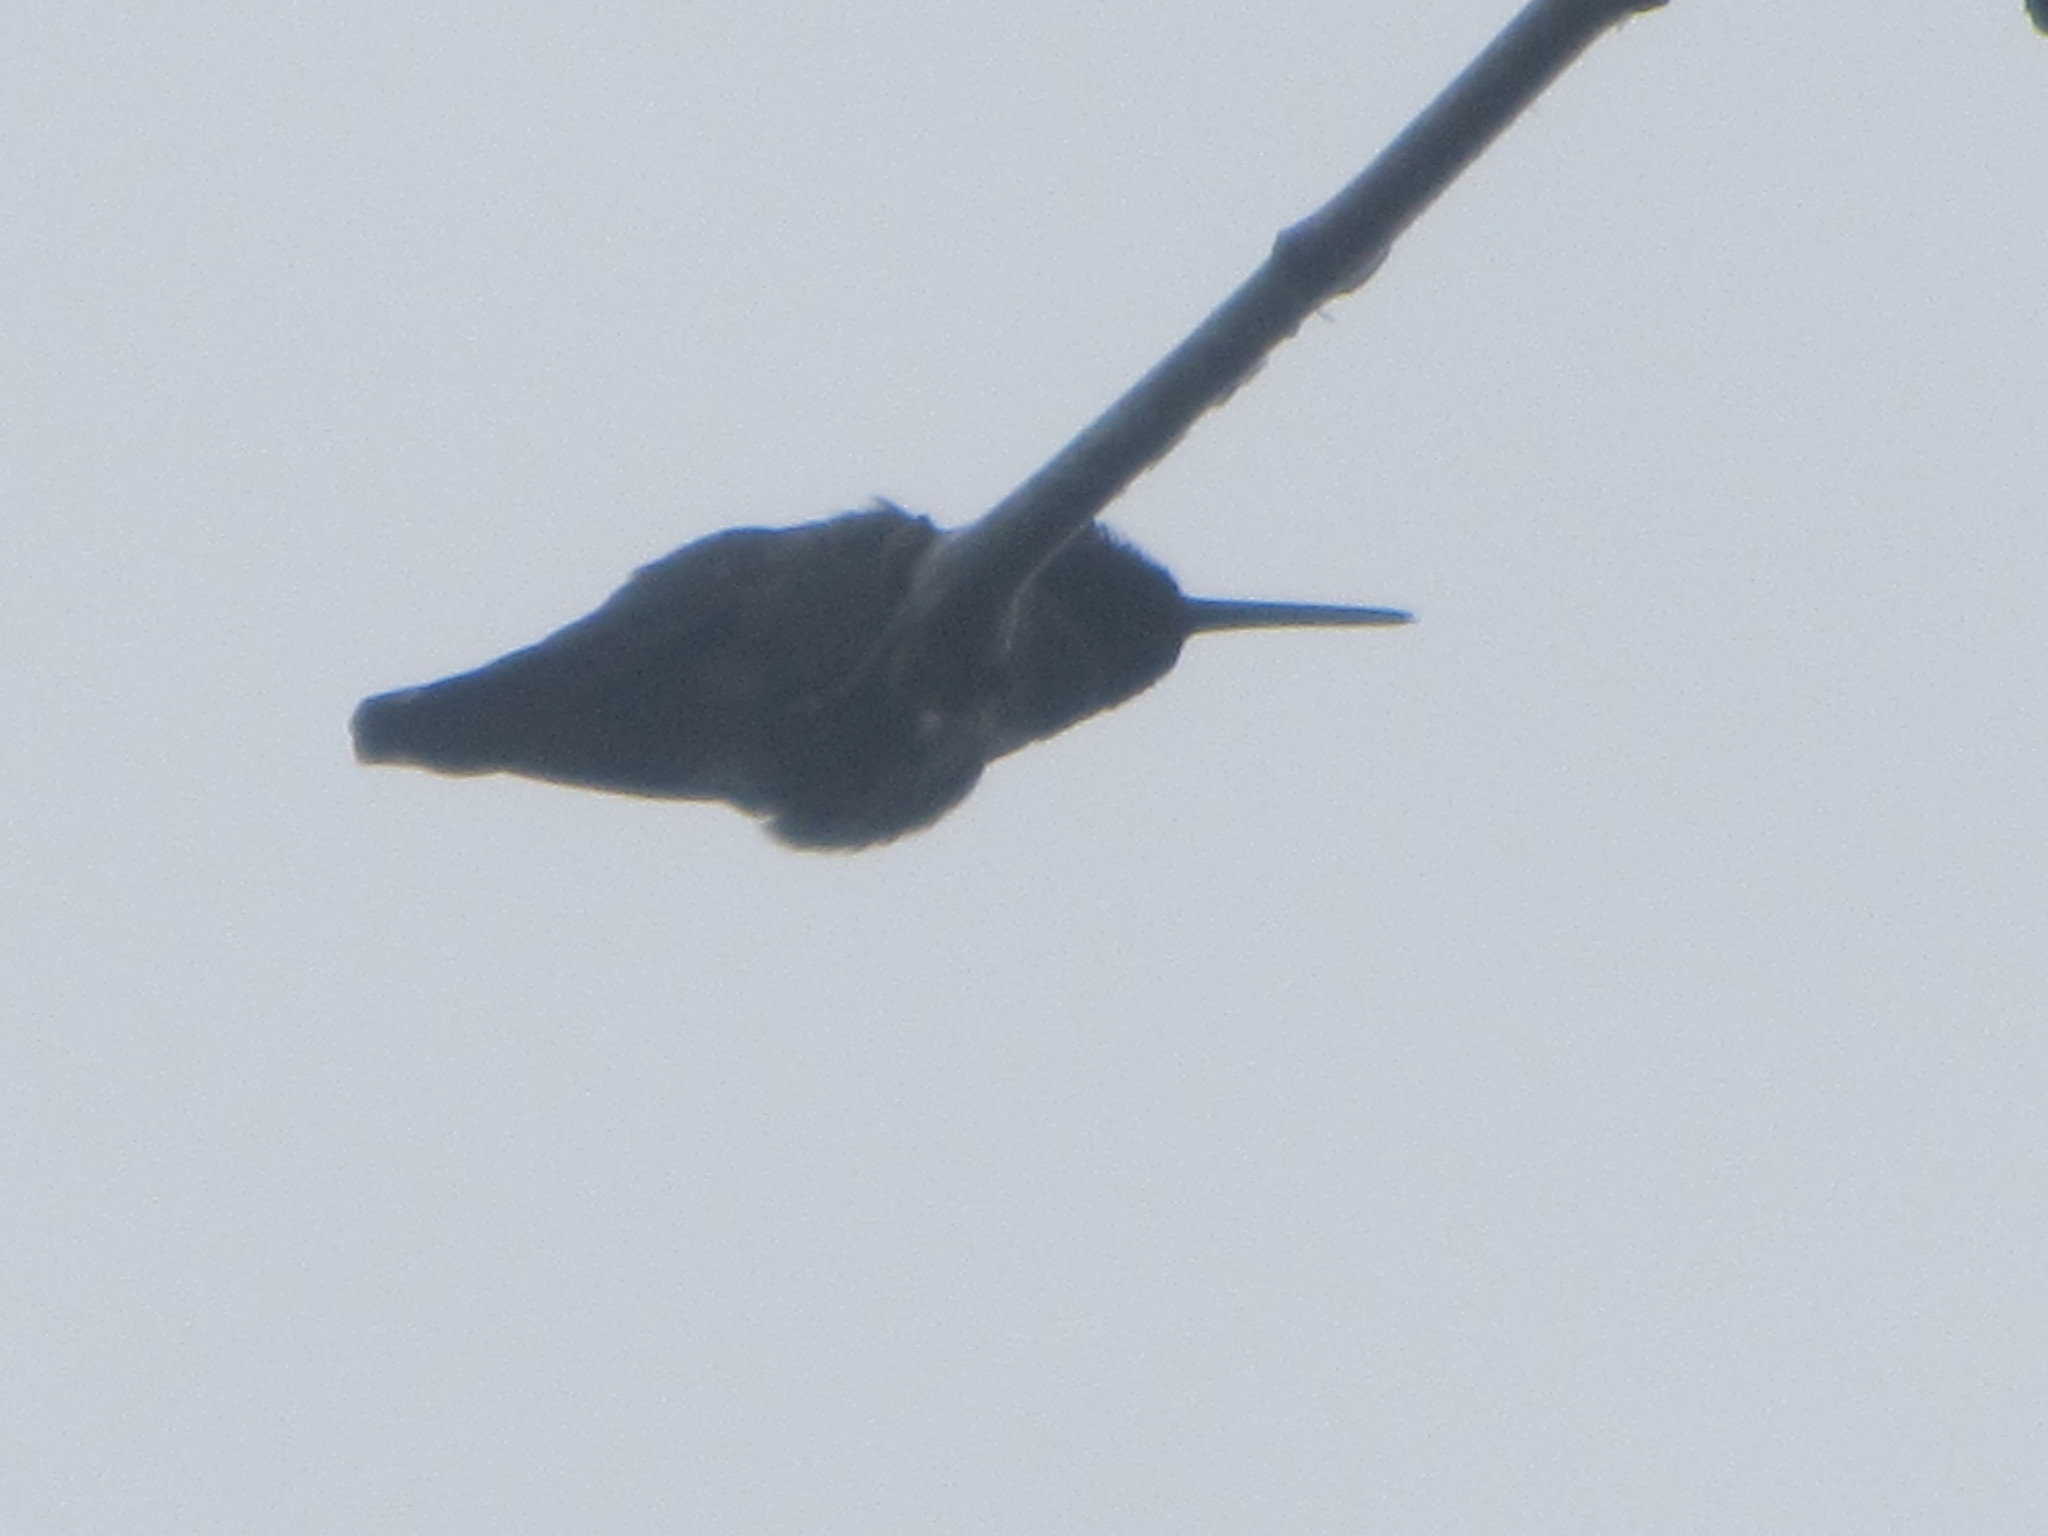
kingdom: Animalia
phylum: Chordata
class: Aves
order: Apodiformes
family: Trochilidae
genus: Calypte
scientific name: Calypte anna
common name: Anna's hummingbird
